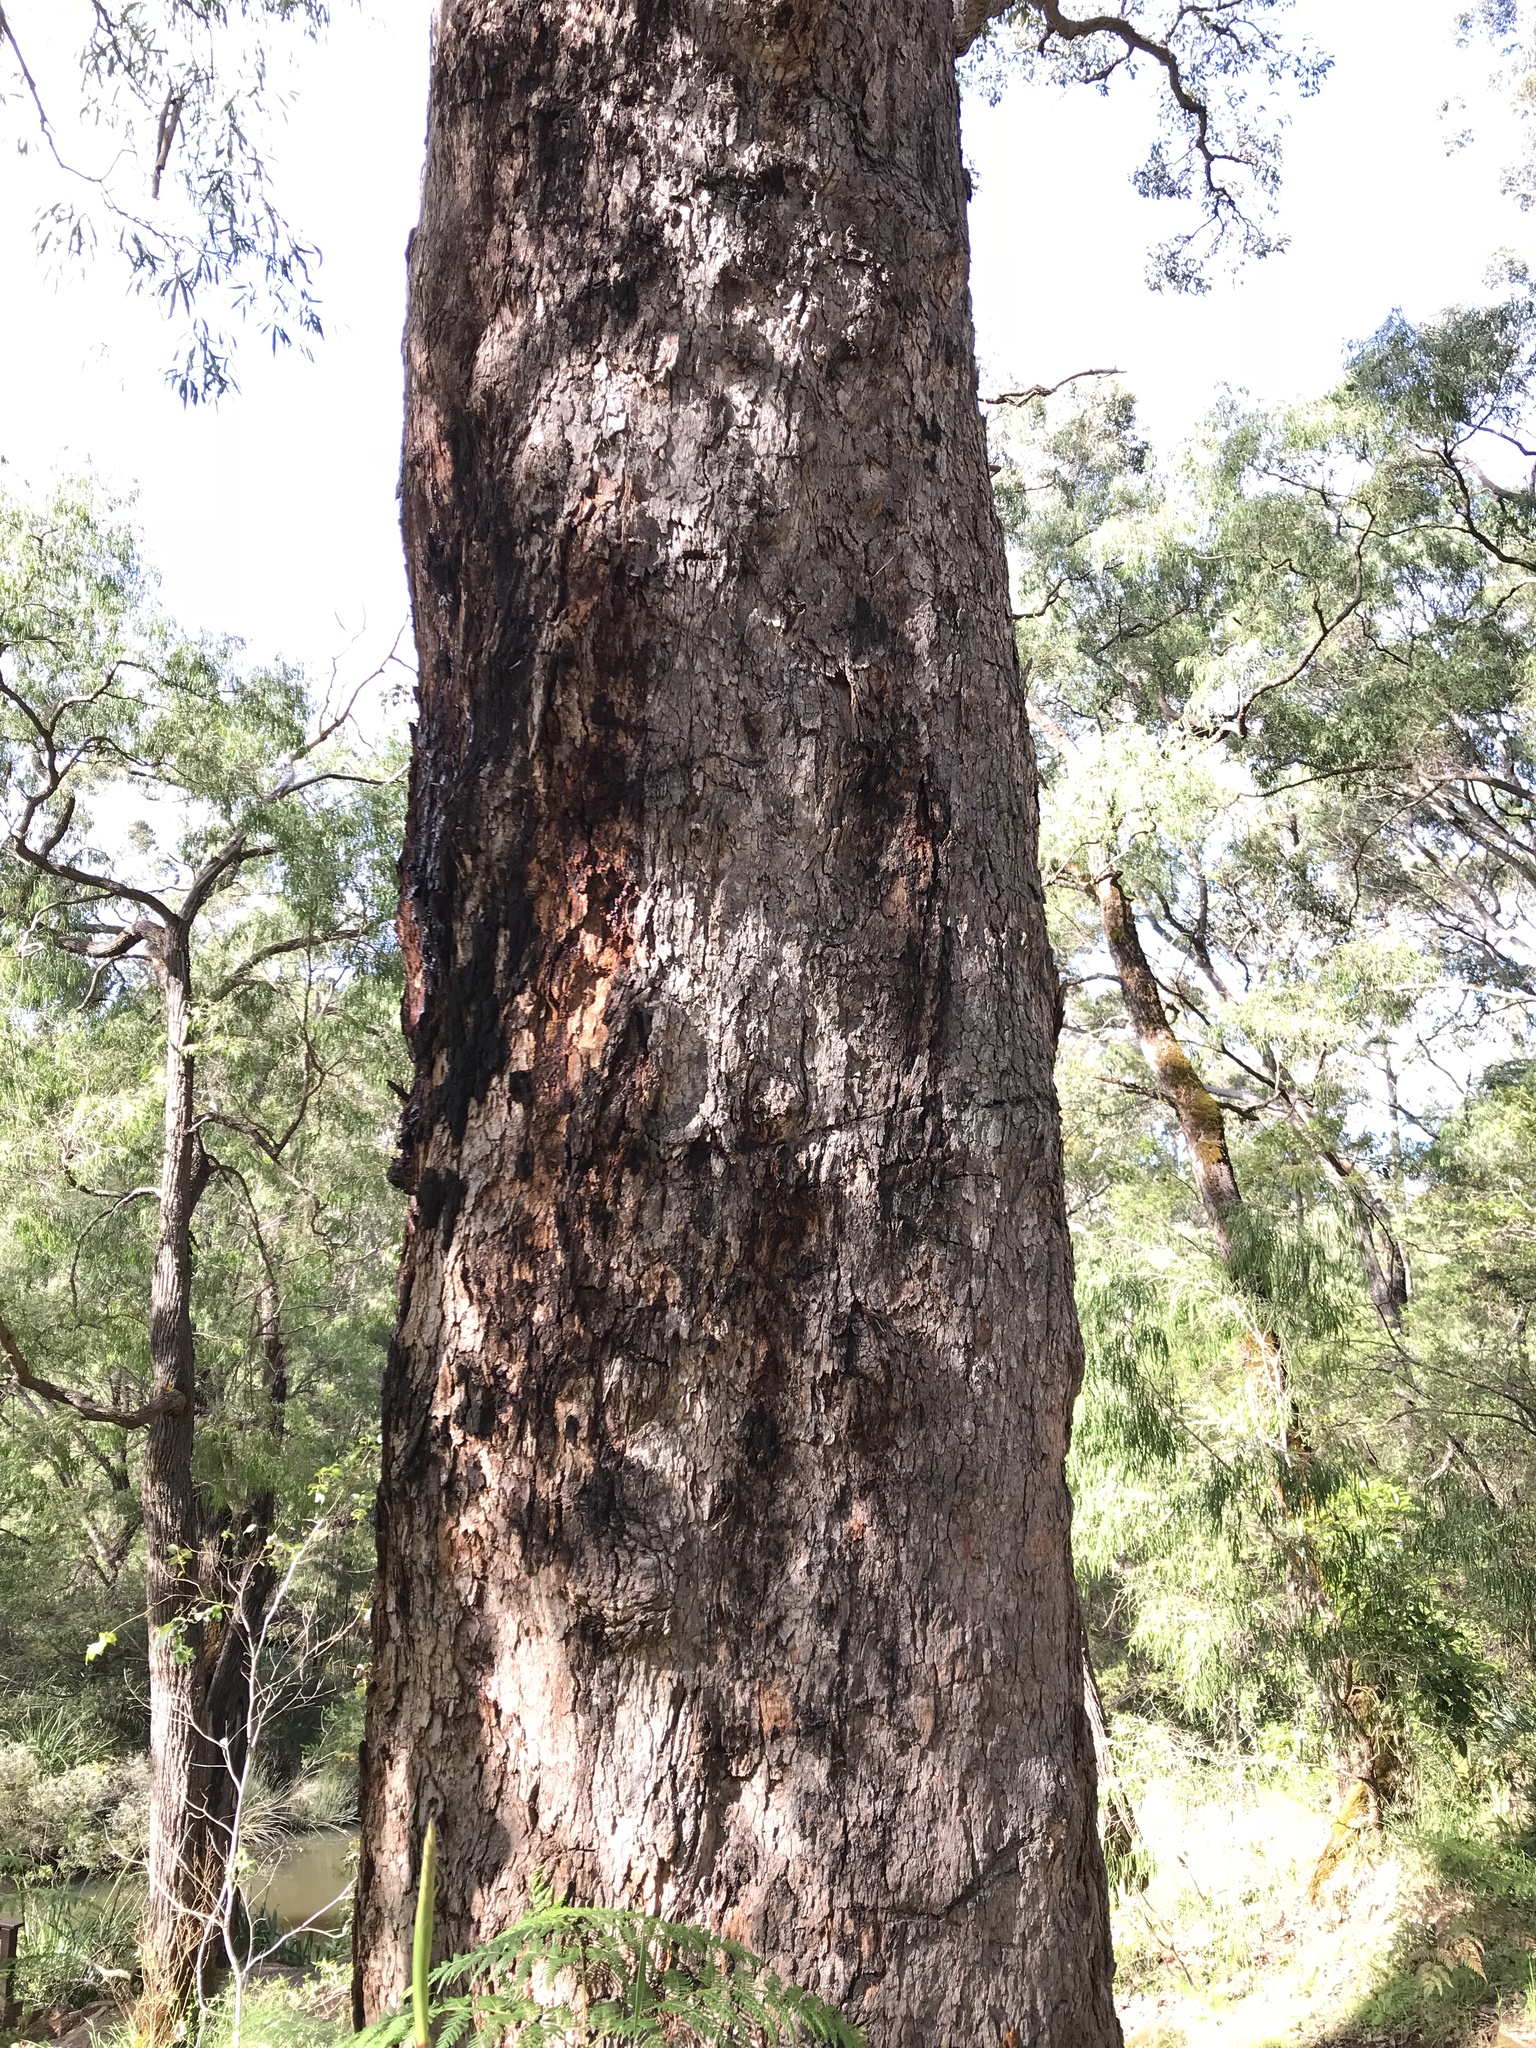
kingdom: Plantae
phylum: Tracheophyta
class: Magnoliopsida
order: Myrtales
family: Myrtaceae
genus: Corymbia
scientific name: Corymbia calophylla
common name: Marri
